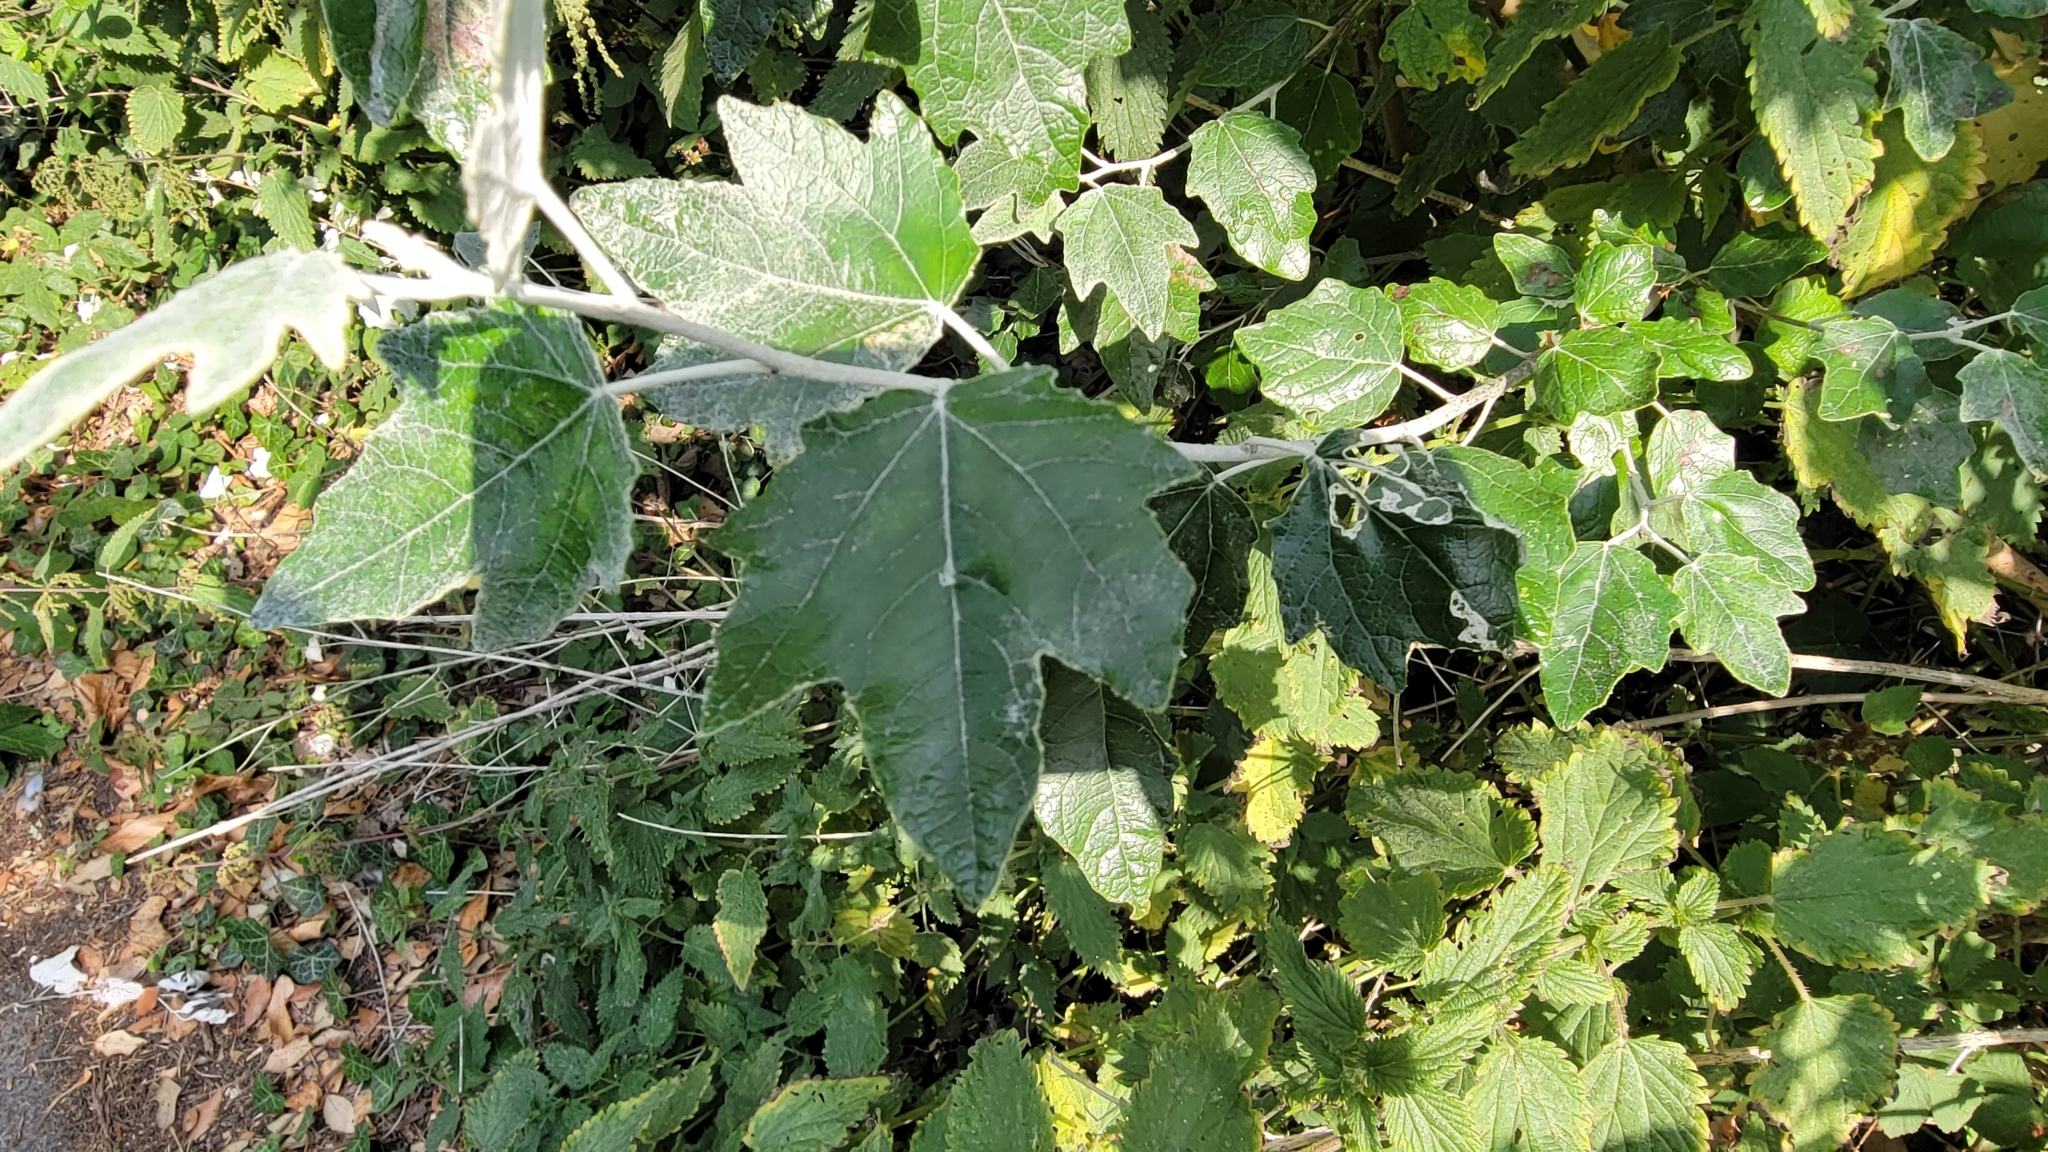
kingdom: Plantae
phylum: Tracheophyta
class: Magnoliopsida
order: Malpighiales
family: Salicaceae
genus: Populus
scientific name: Populus alba
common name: White poplar
